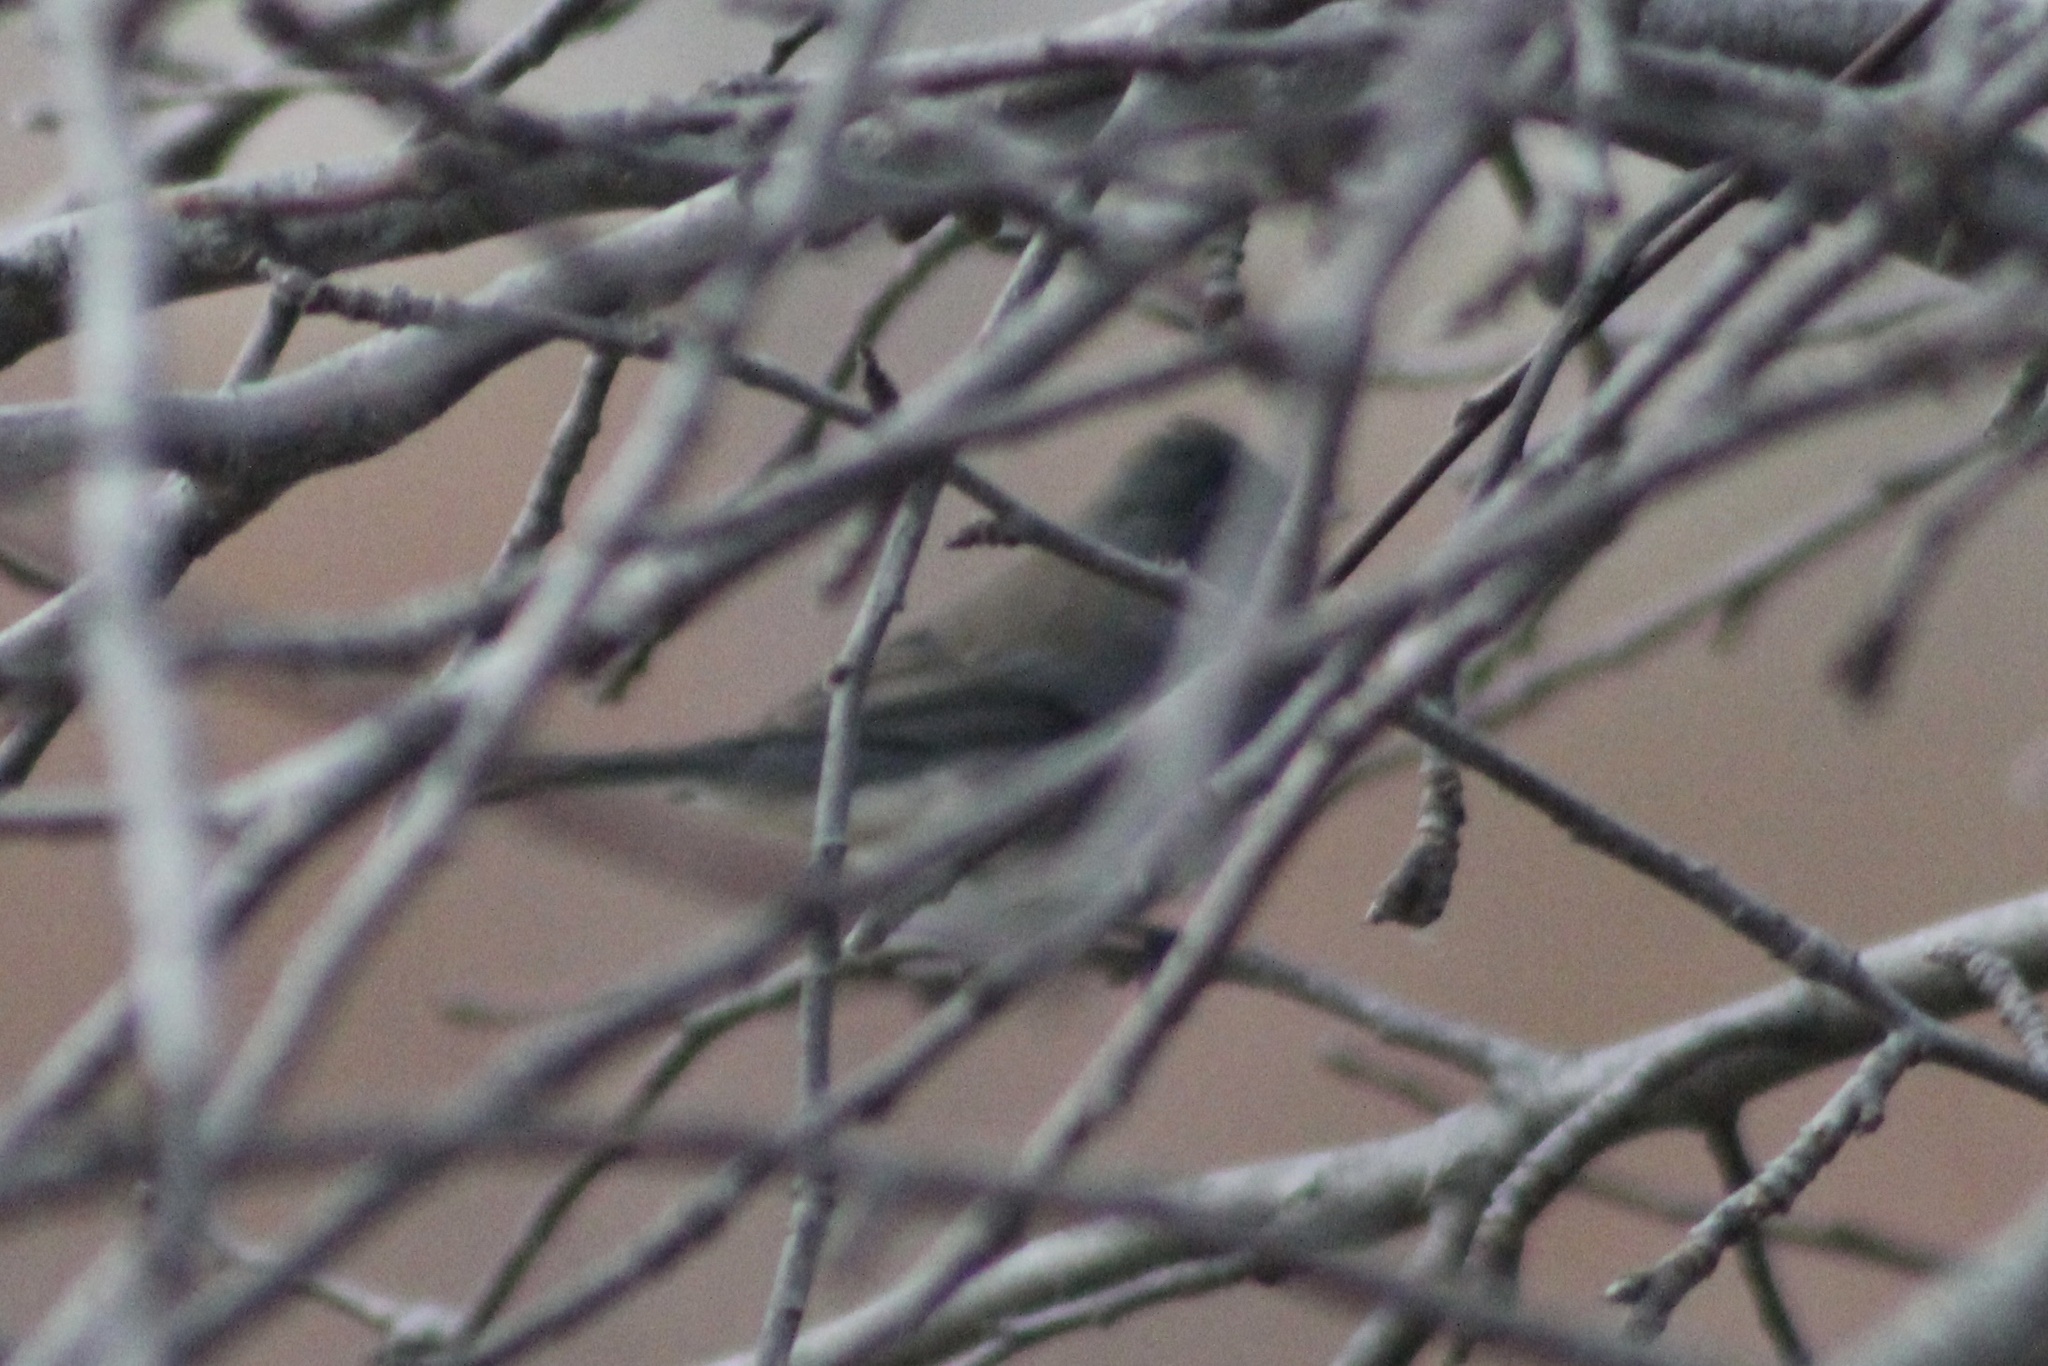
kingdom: Animalia
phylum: Chordata
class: Aves
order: Passeriformes
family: Passerellidae
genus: Junco
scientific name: Junco hyemalis
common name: Dark-eyed junco
